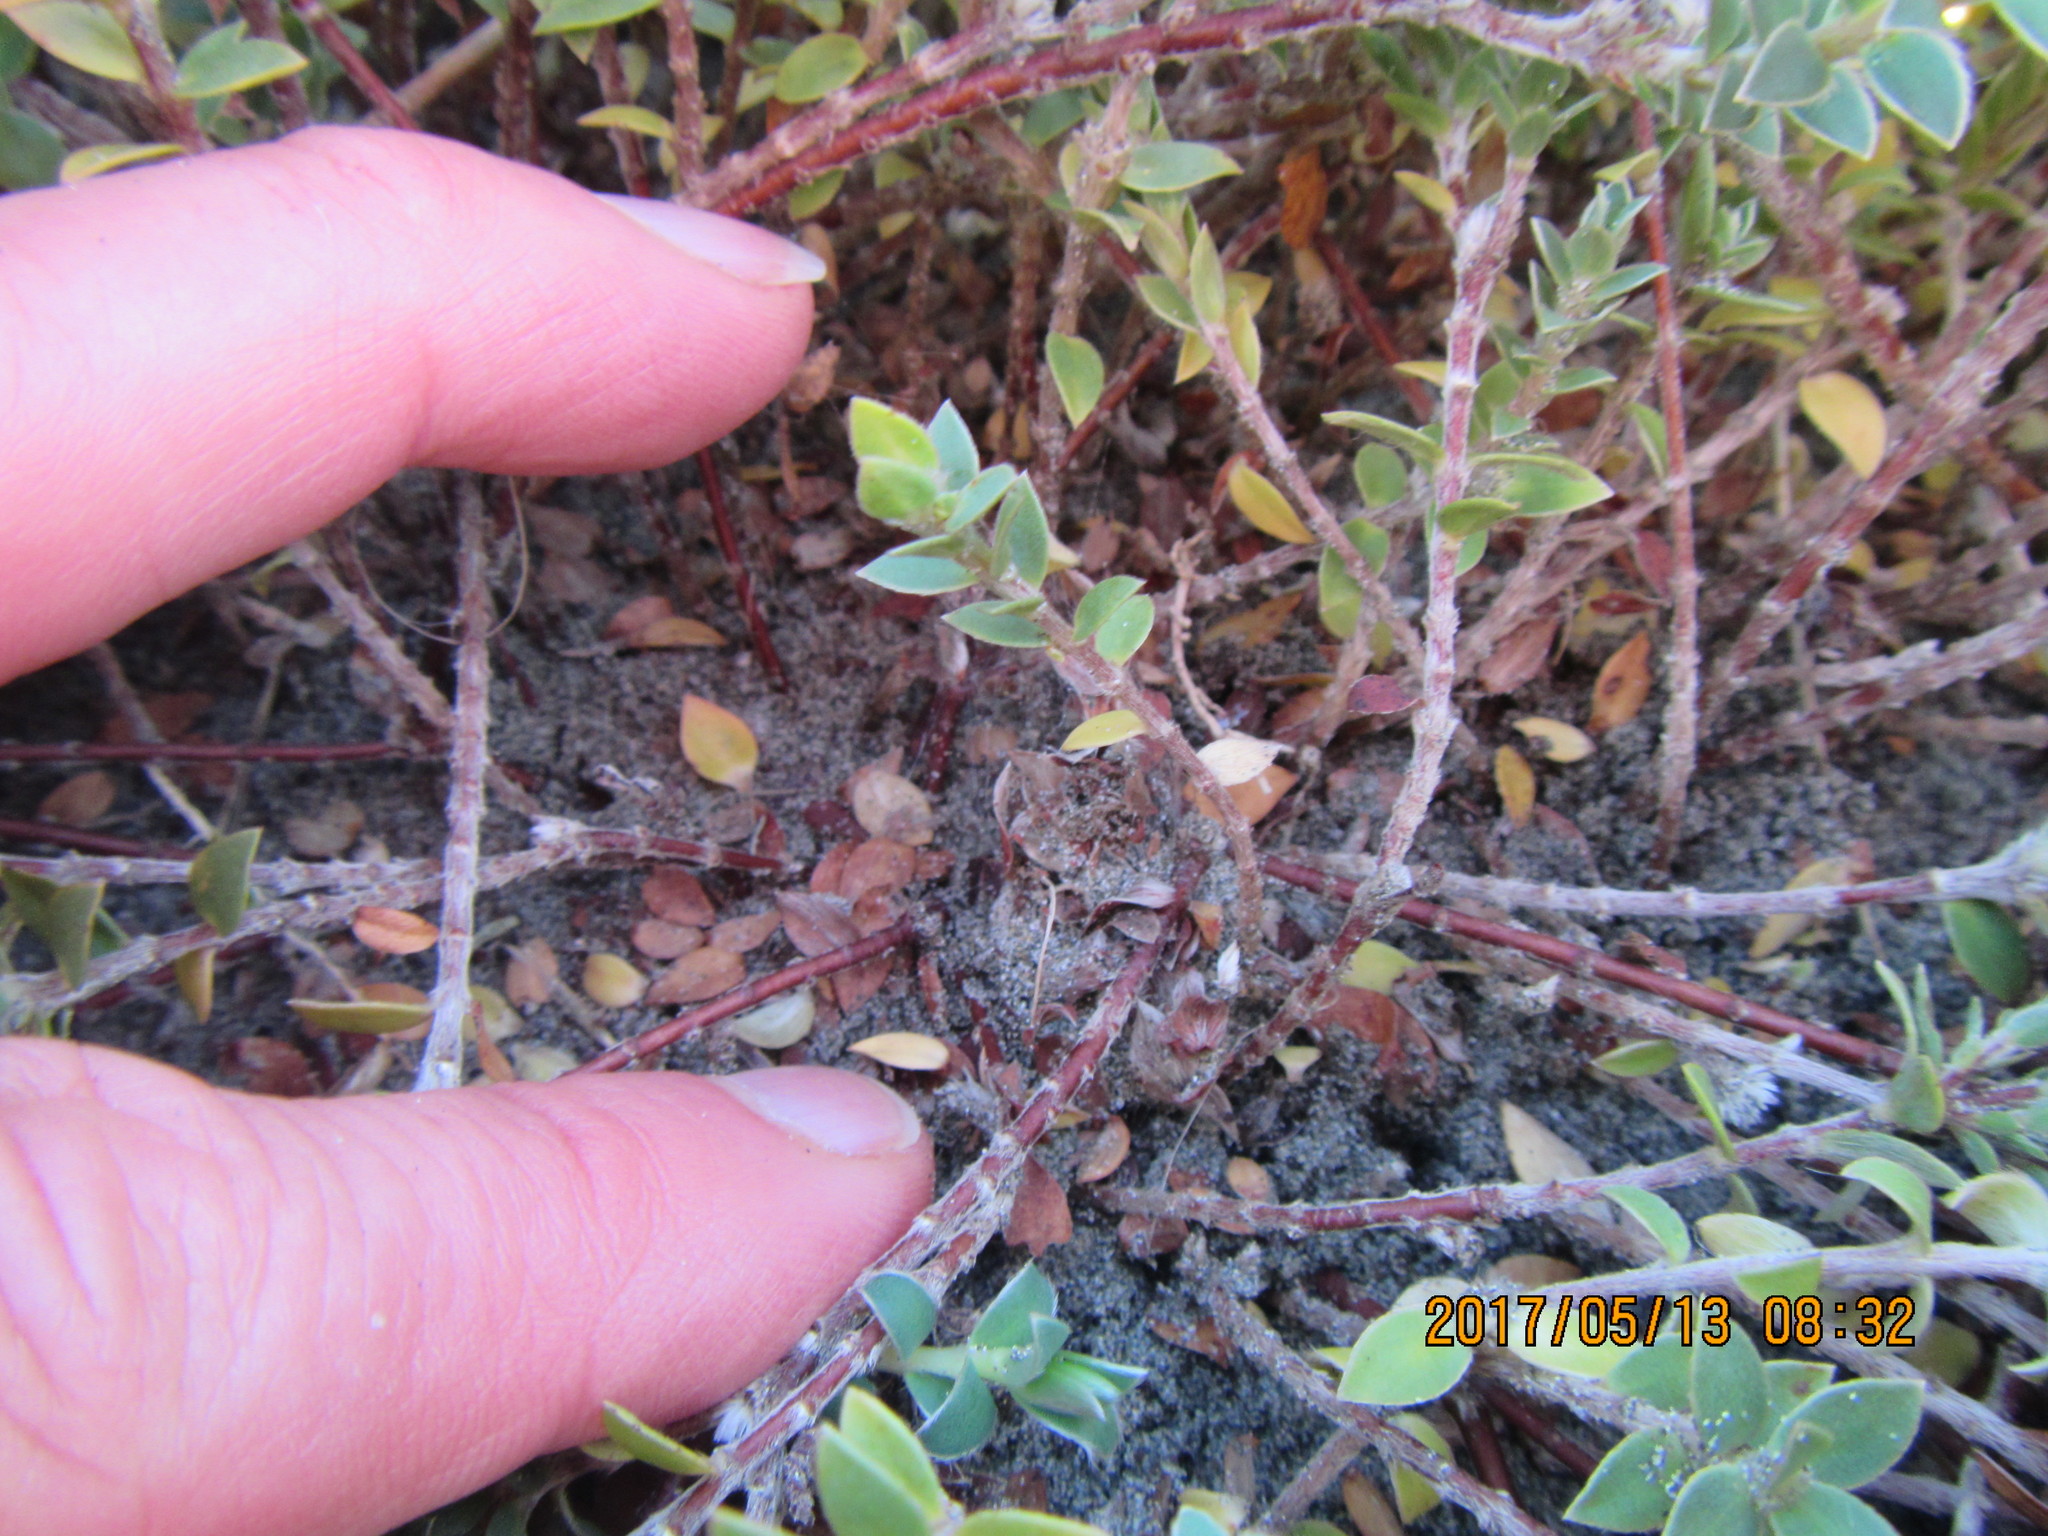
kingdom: Animalia
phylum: Arthropoda
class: Arachnida
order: Araneae
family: Theridiidae
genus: Latrodectus
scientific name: Latrodectus katipo
